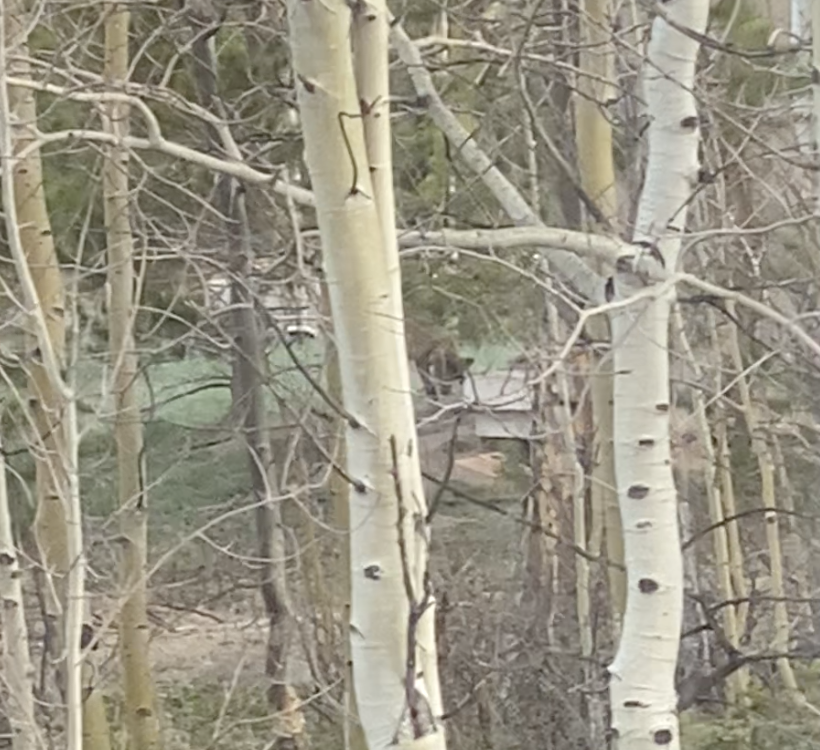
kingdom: Animalia
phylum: Chordata
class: Mammalia
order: Carnivora
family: Canidae
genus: Vulpes
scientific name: Vulpes vulpes
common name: Red fox
